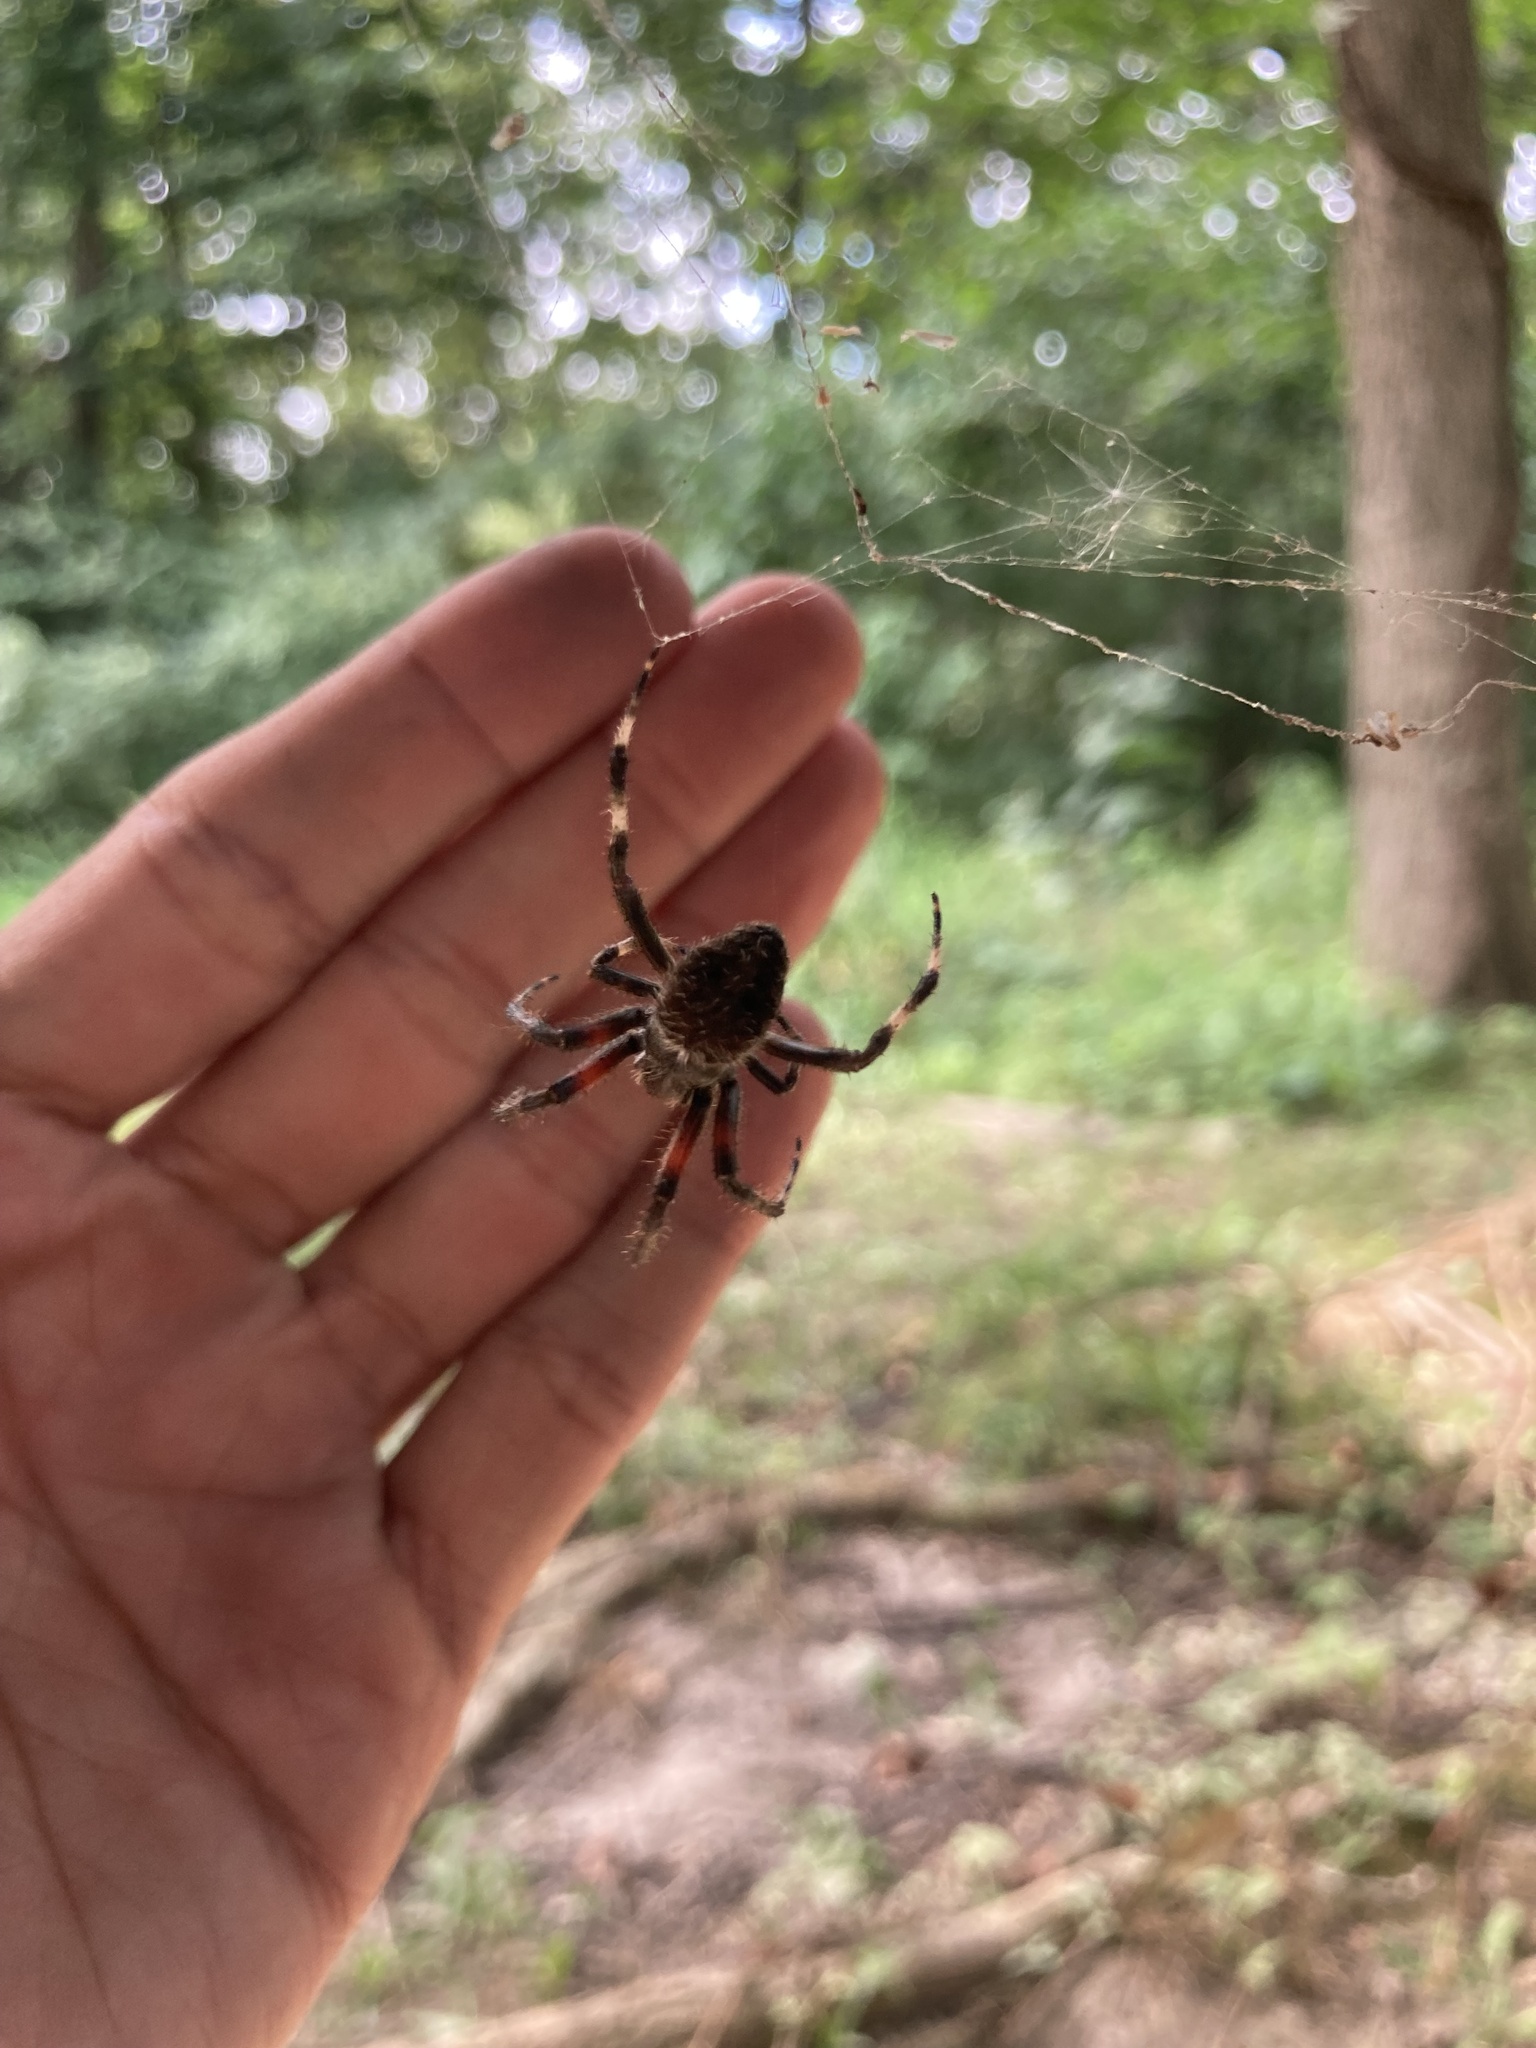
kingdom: Animalia
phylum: Arthropoda
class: Arachnida
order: Araneae
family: Araneidae
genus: Neoscona
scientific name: Neoscona crucifera
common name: Spotted orbweaver
